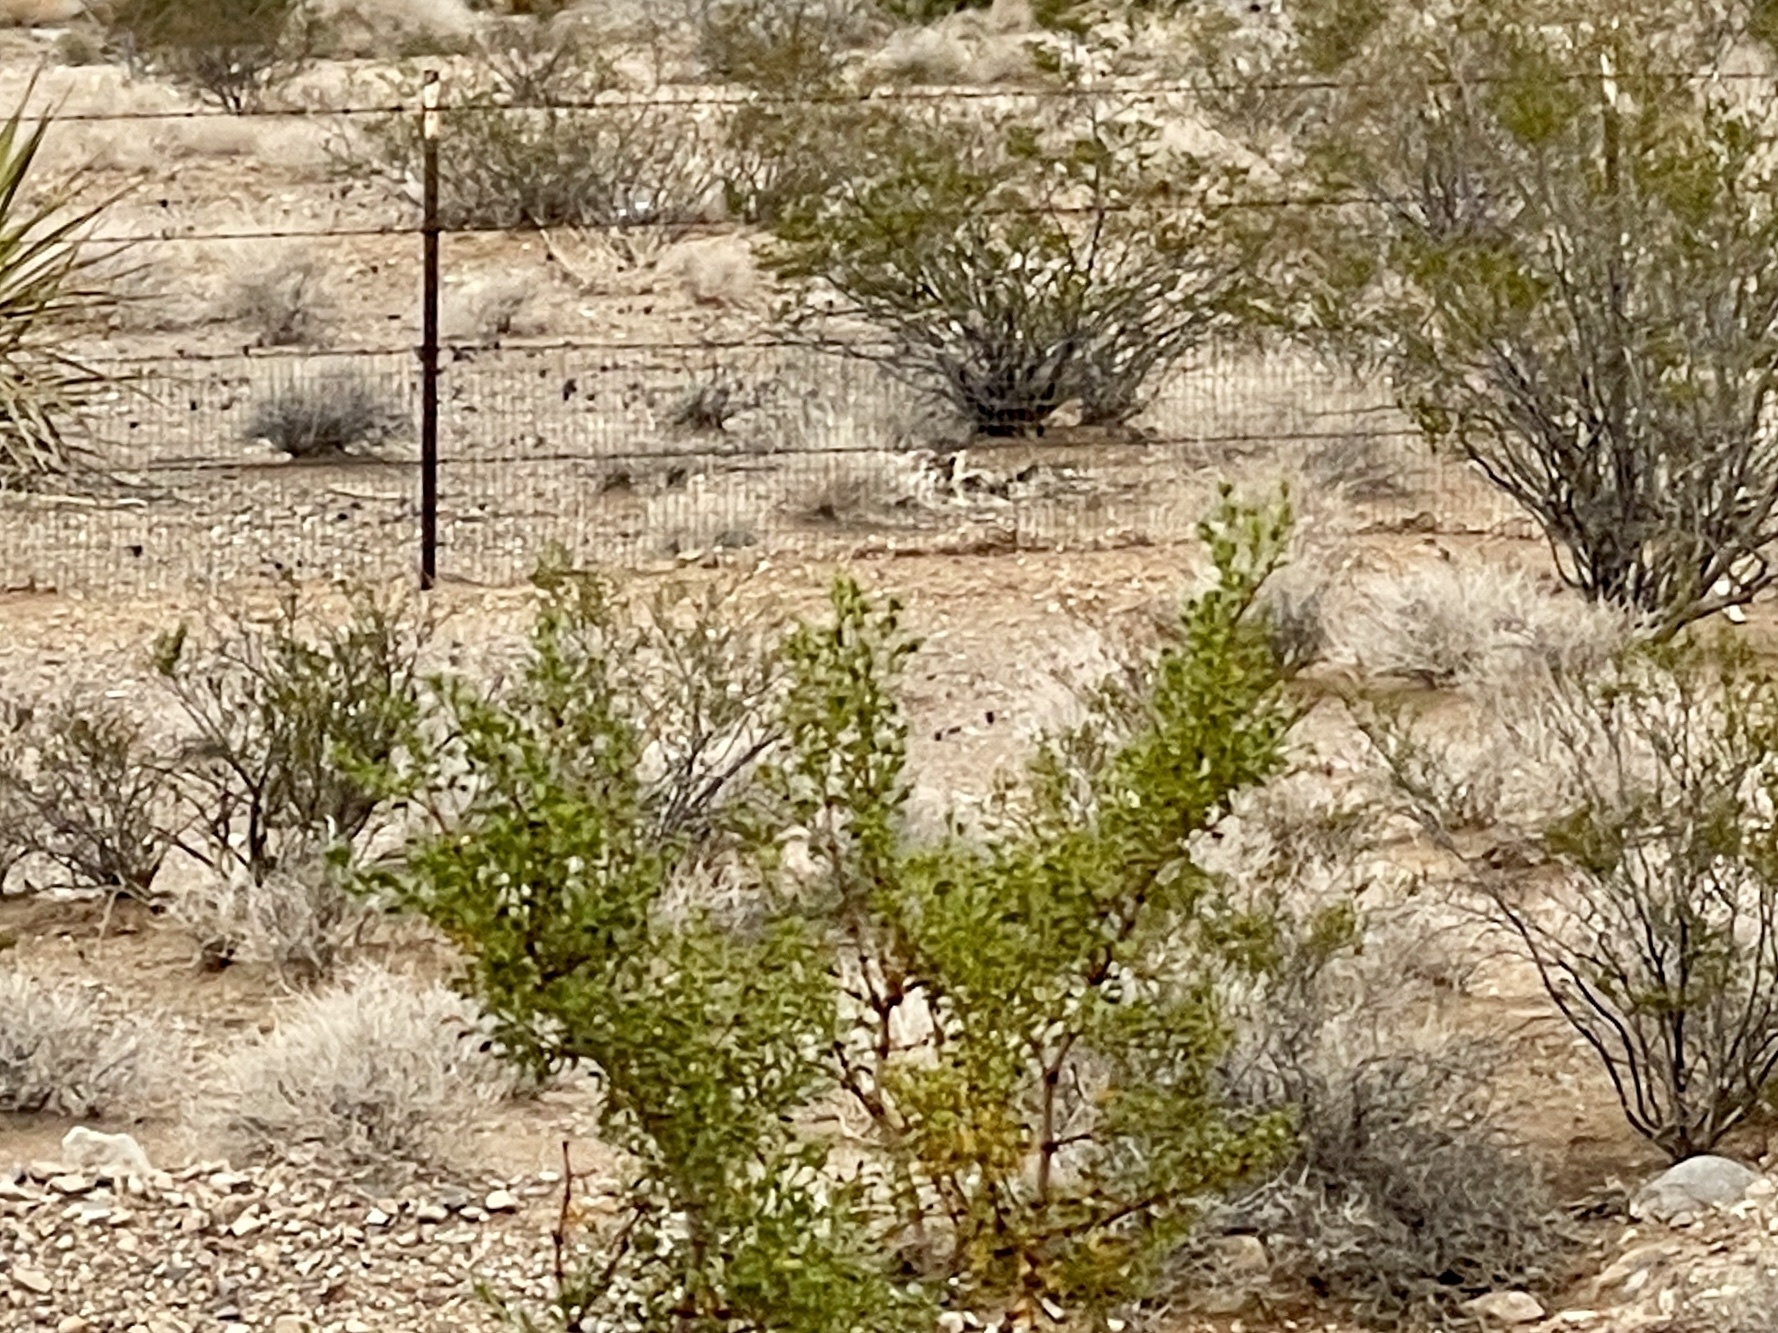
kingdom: Plantae
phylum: Tracheophyta
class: Magnoliopsida
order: Zygophyllales
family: Zygophyllaceae
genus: Larrea
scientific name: Larrea tridentata
